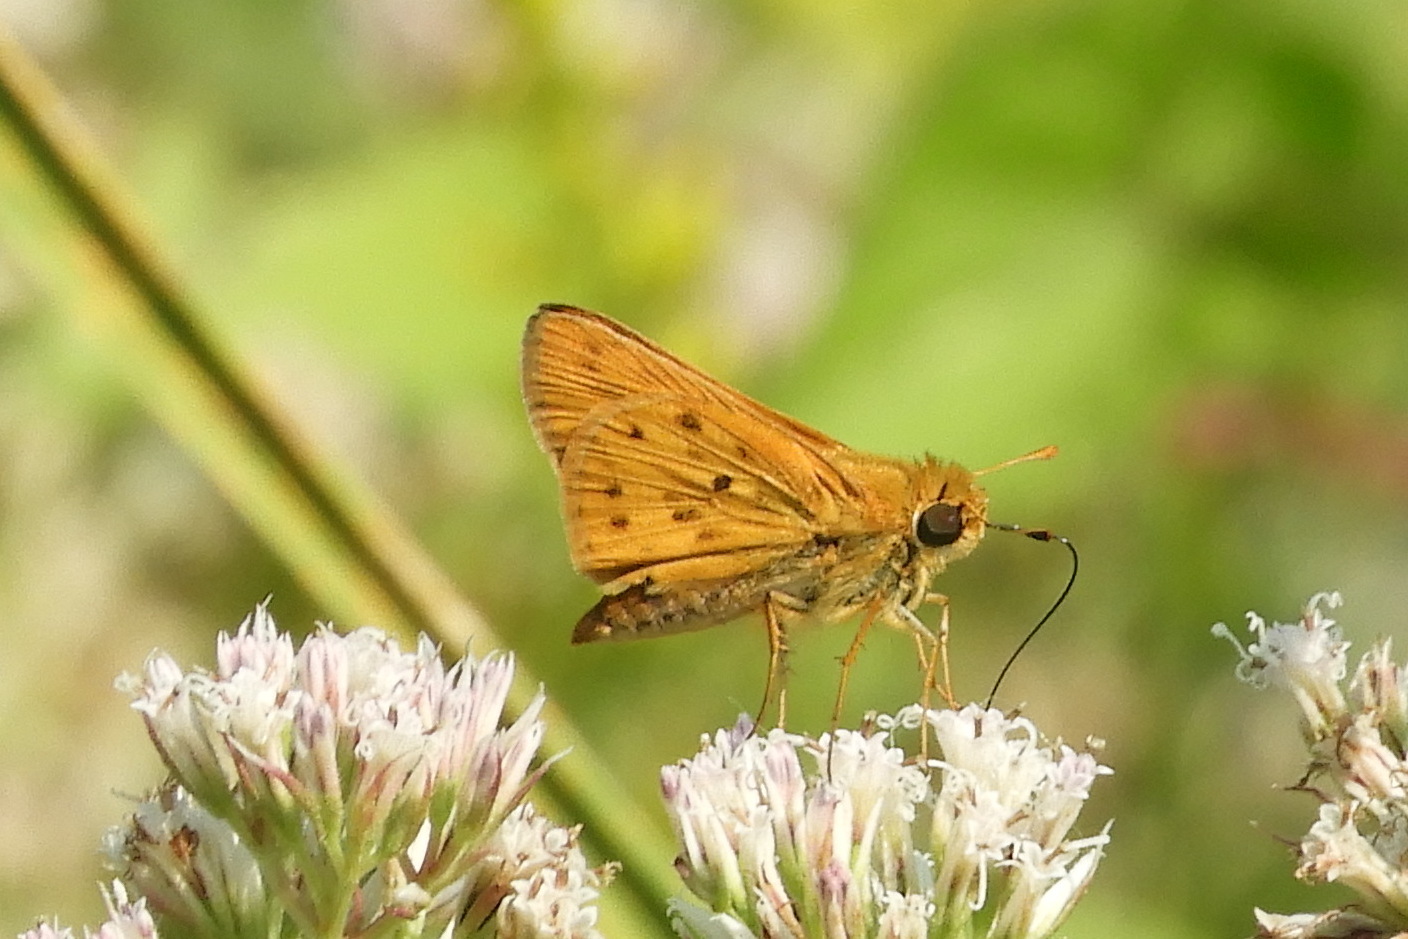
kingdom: Animalia
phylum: Arthropoda
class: Insecta
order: Lepidoptera
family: Hesperiidae
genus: Hylephila
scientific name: Hylephila phyleus
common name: Fiery skipper
